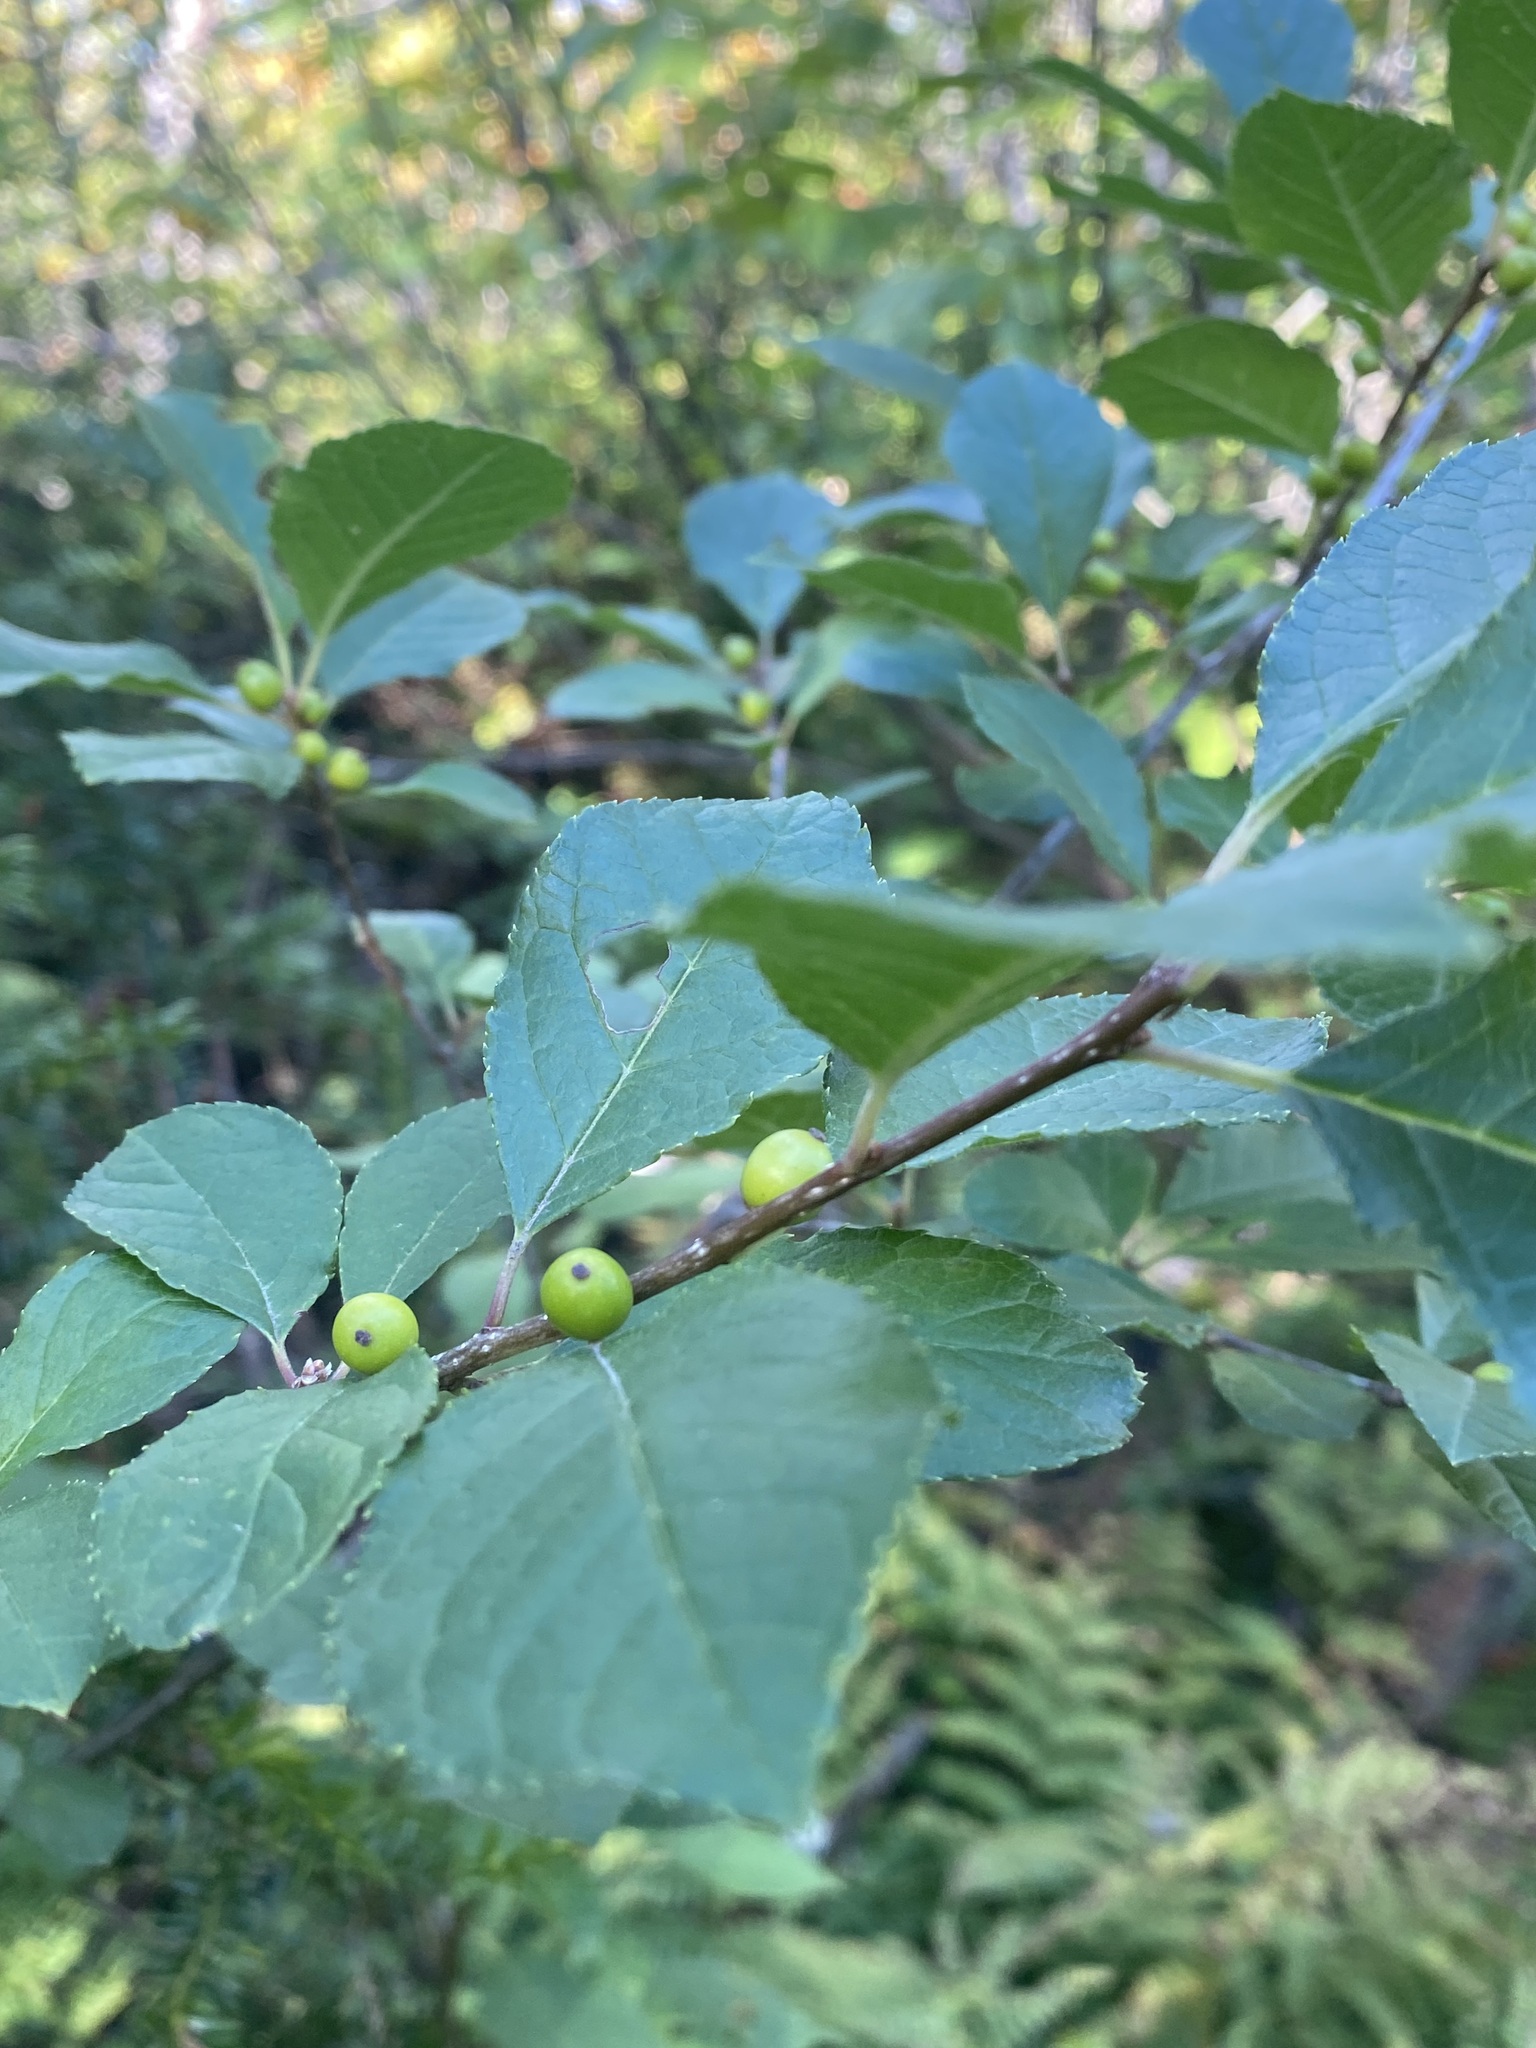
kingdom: Plantae
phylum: Tracheophyta
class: Magnoliopsida
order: Aquifoliales
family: Aquifoliaceae
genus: Ilex
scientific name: Ilex verticillata
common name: Virginia winterberry
